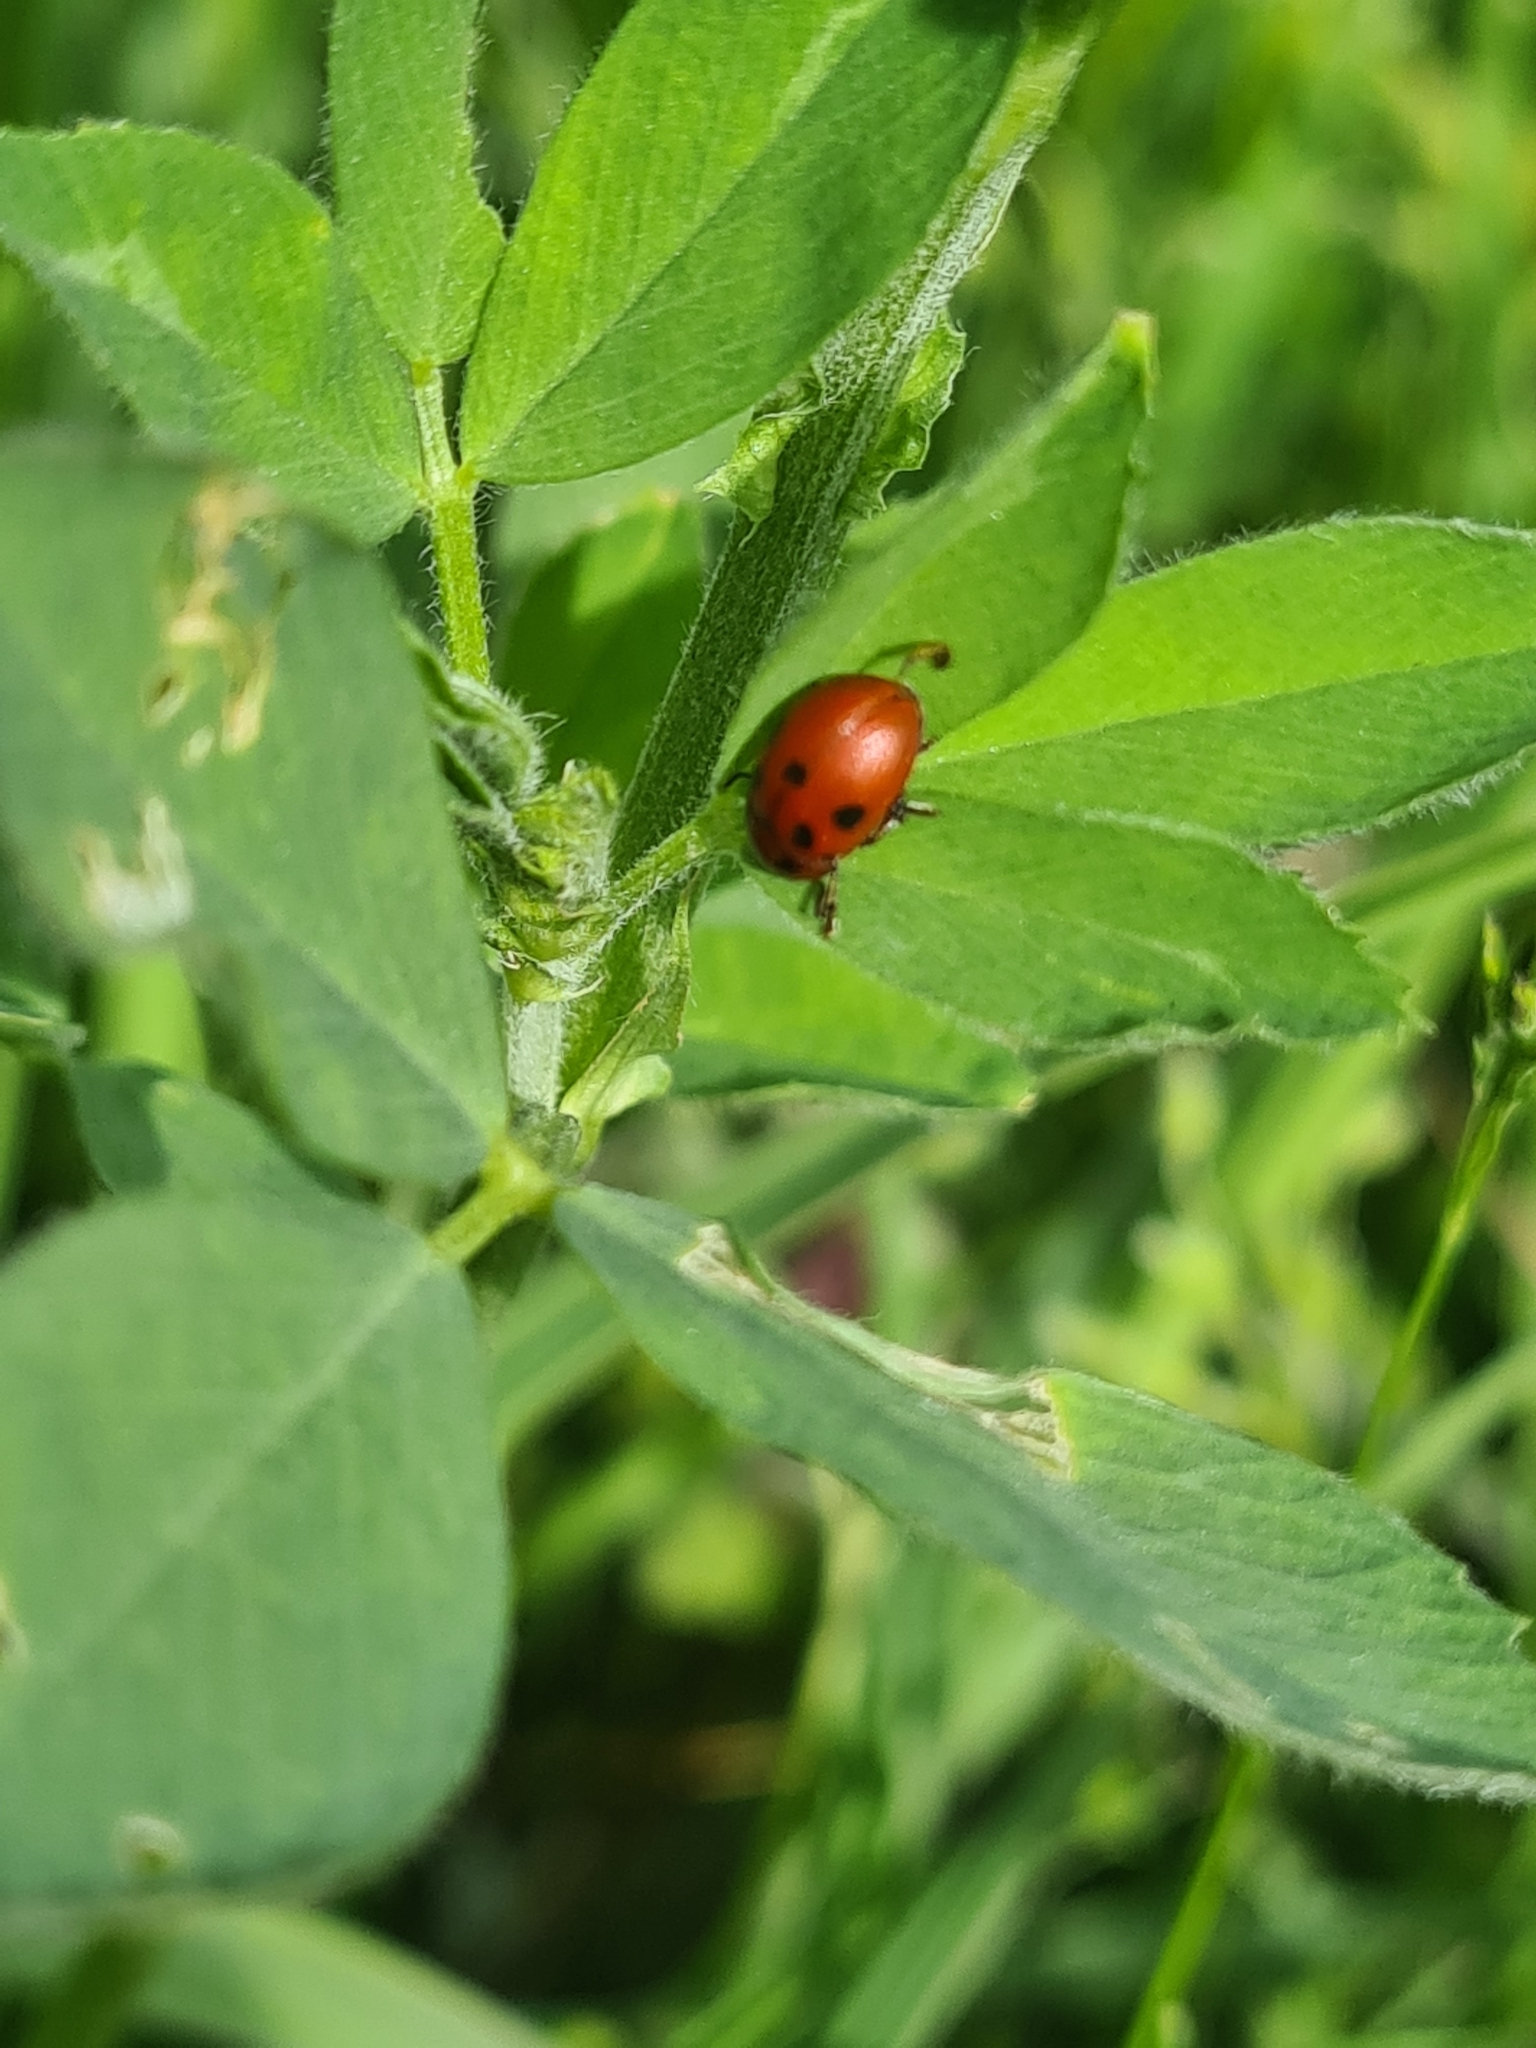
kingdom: Animalia
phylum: Arthropoda
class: Insecta
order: Coleoptera
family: Chrysomelidae
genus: Gonioctena
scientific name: Gonioctena fornicata
